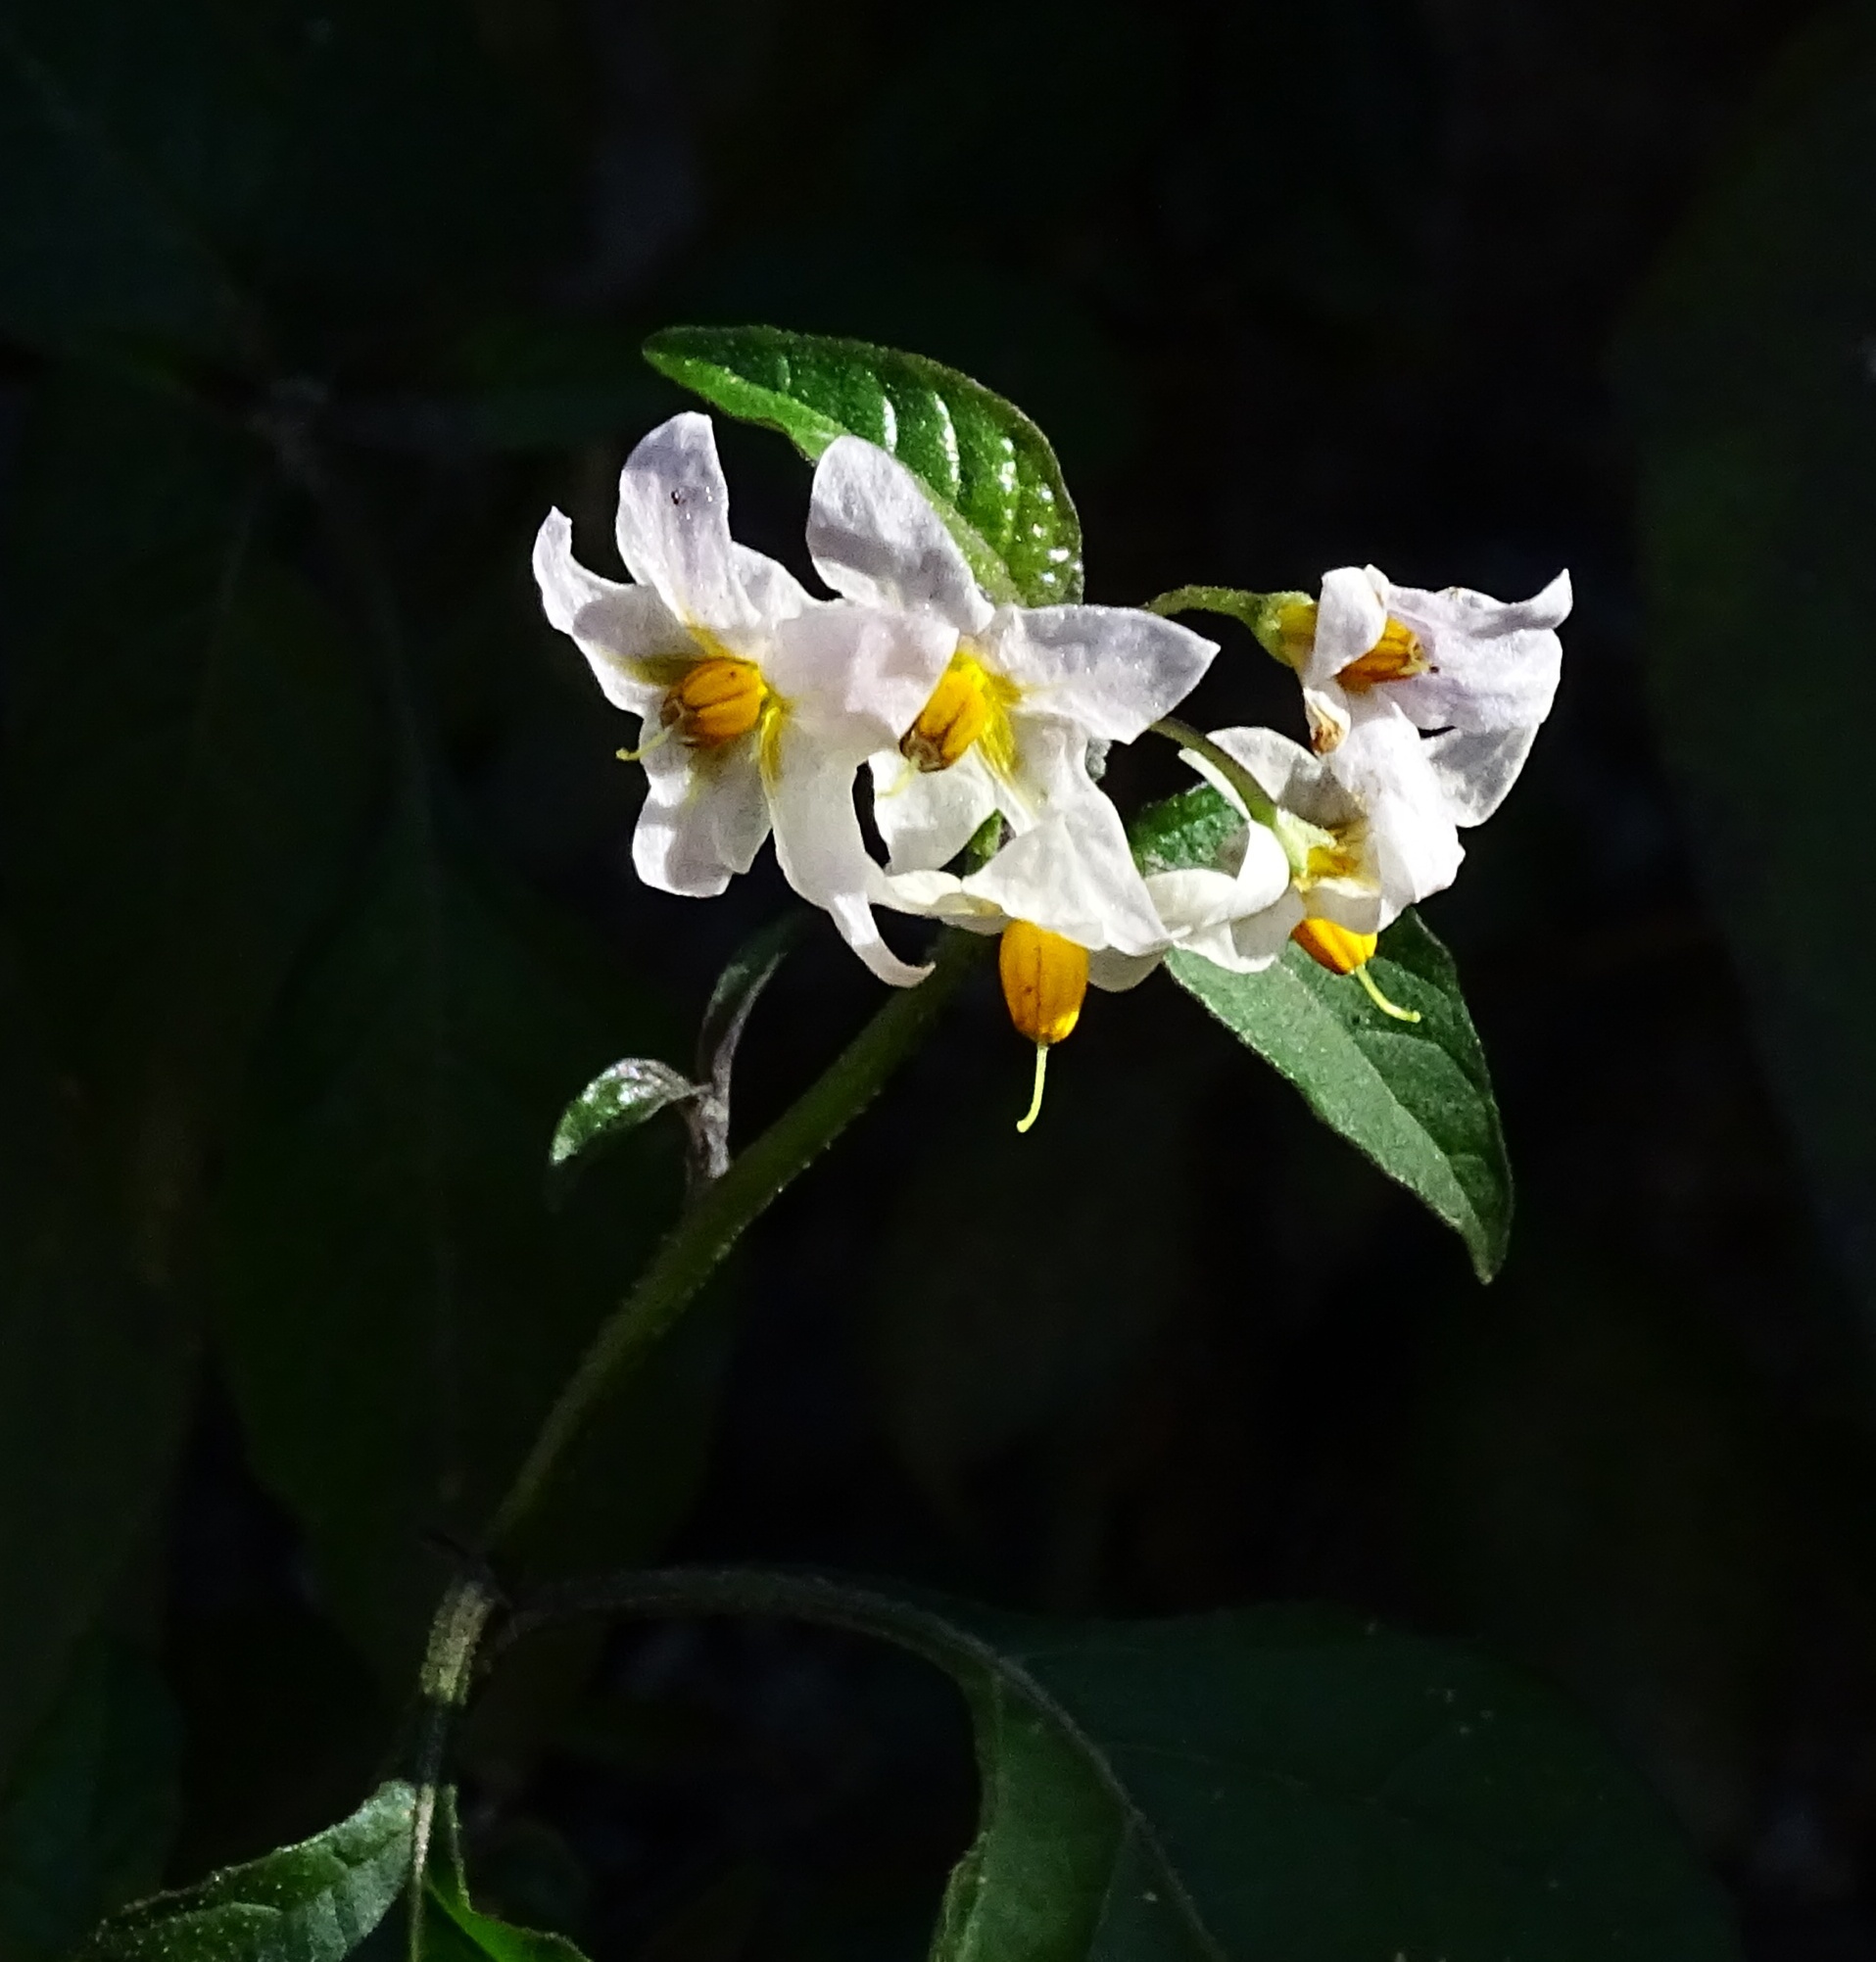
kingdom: Plantae
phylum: Tracheophyta
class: Magnoliopsida
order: Solanales
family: Solanaceae
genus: Solanum
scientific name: Solanum douglasii
